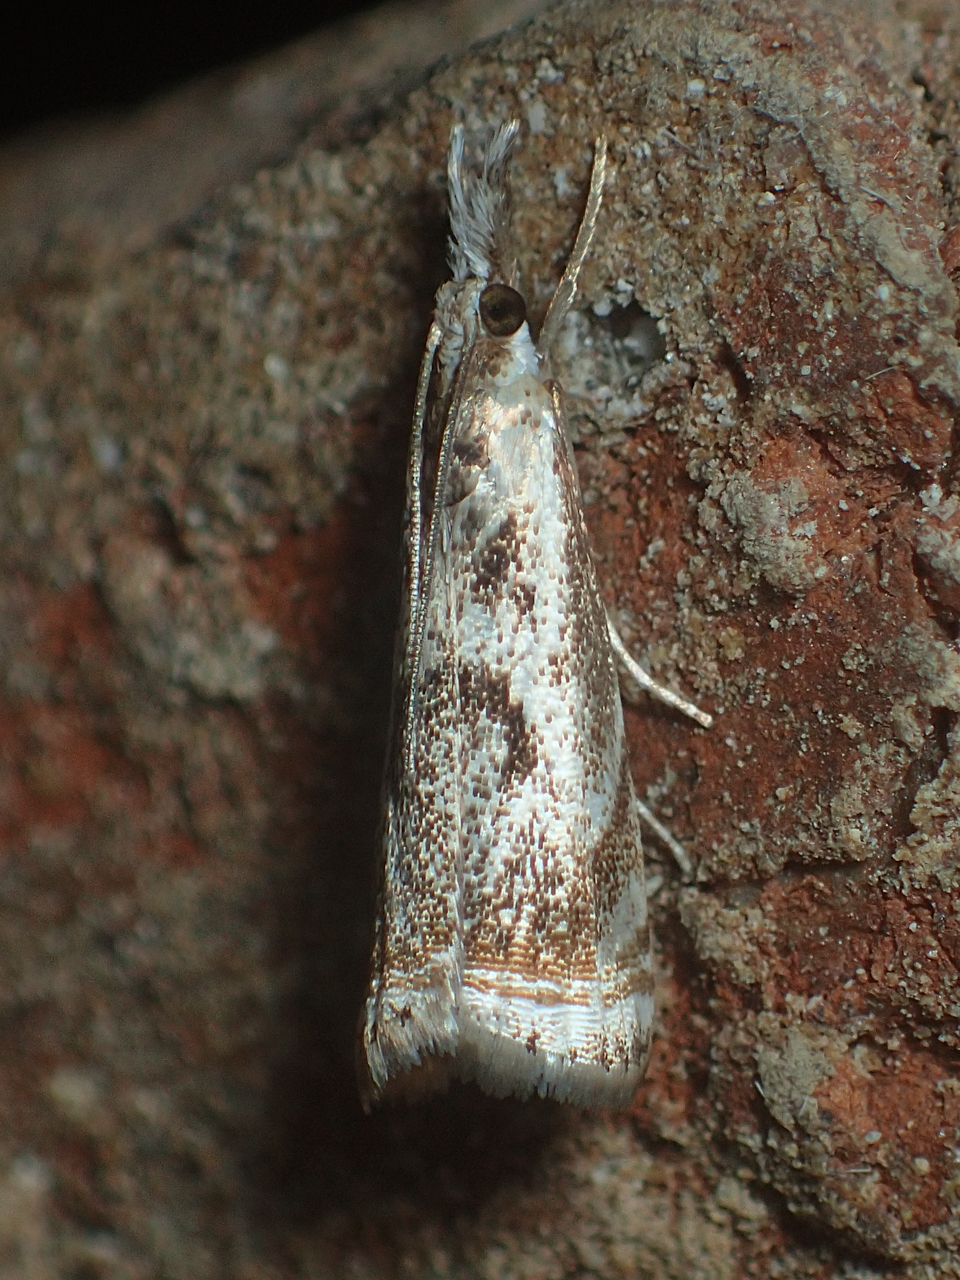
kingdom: Animalia
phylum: Arthropoda
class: Insecta
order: Lepidoptera
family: Crambidae
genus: Microcrambus
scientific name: Microcrambus elegans
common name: Elegant grass-veneer
